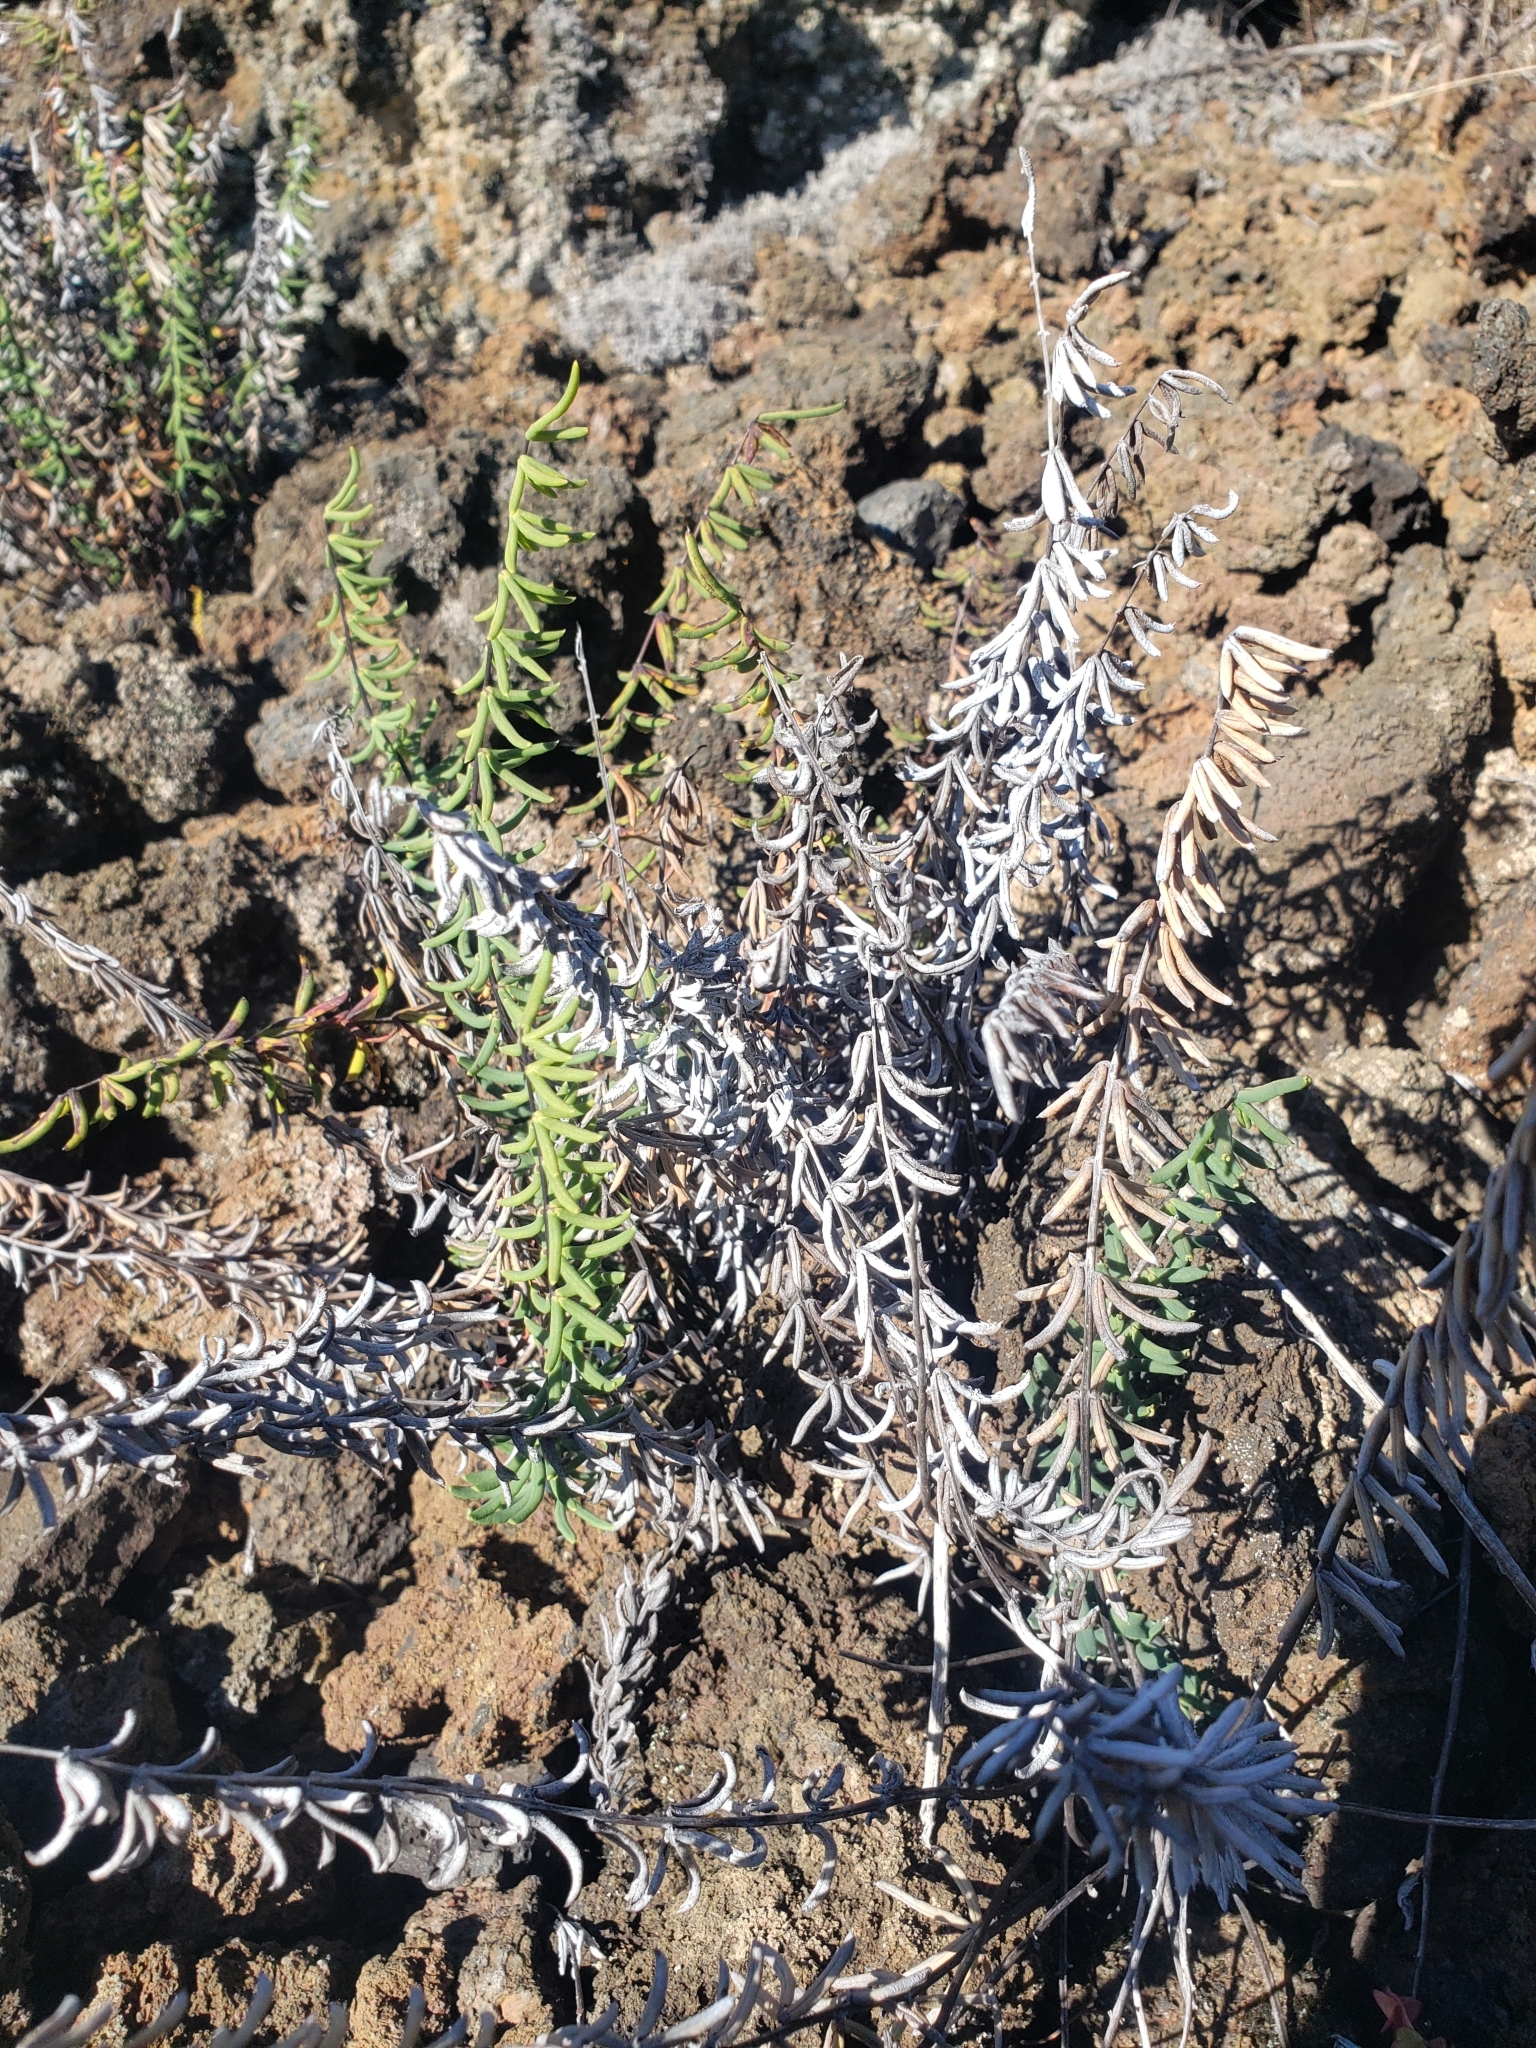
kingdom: Plantae
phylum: Tracheophyta
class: Polypodiopsida
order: Polypodiales
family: Pteridaceae
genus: Pellaea
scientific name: Pellaea ternifolia
